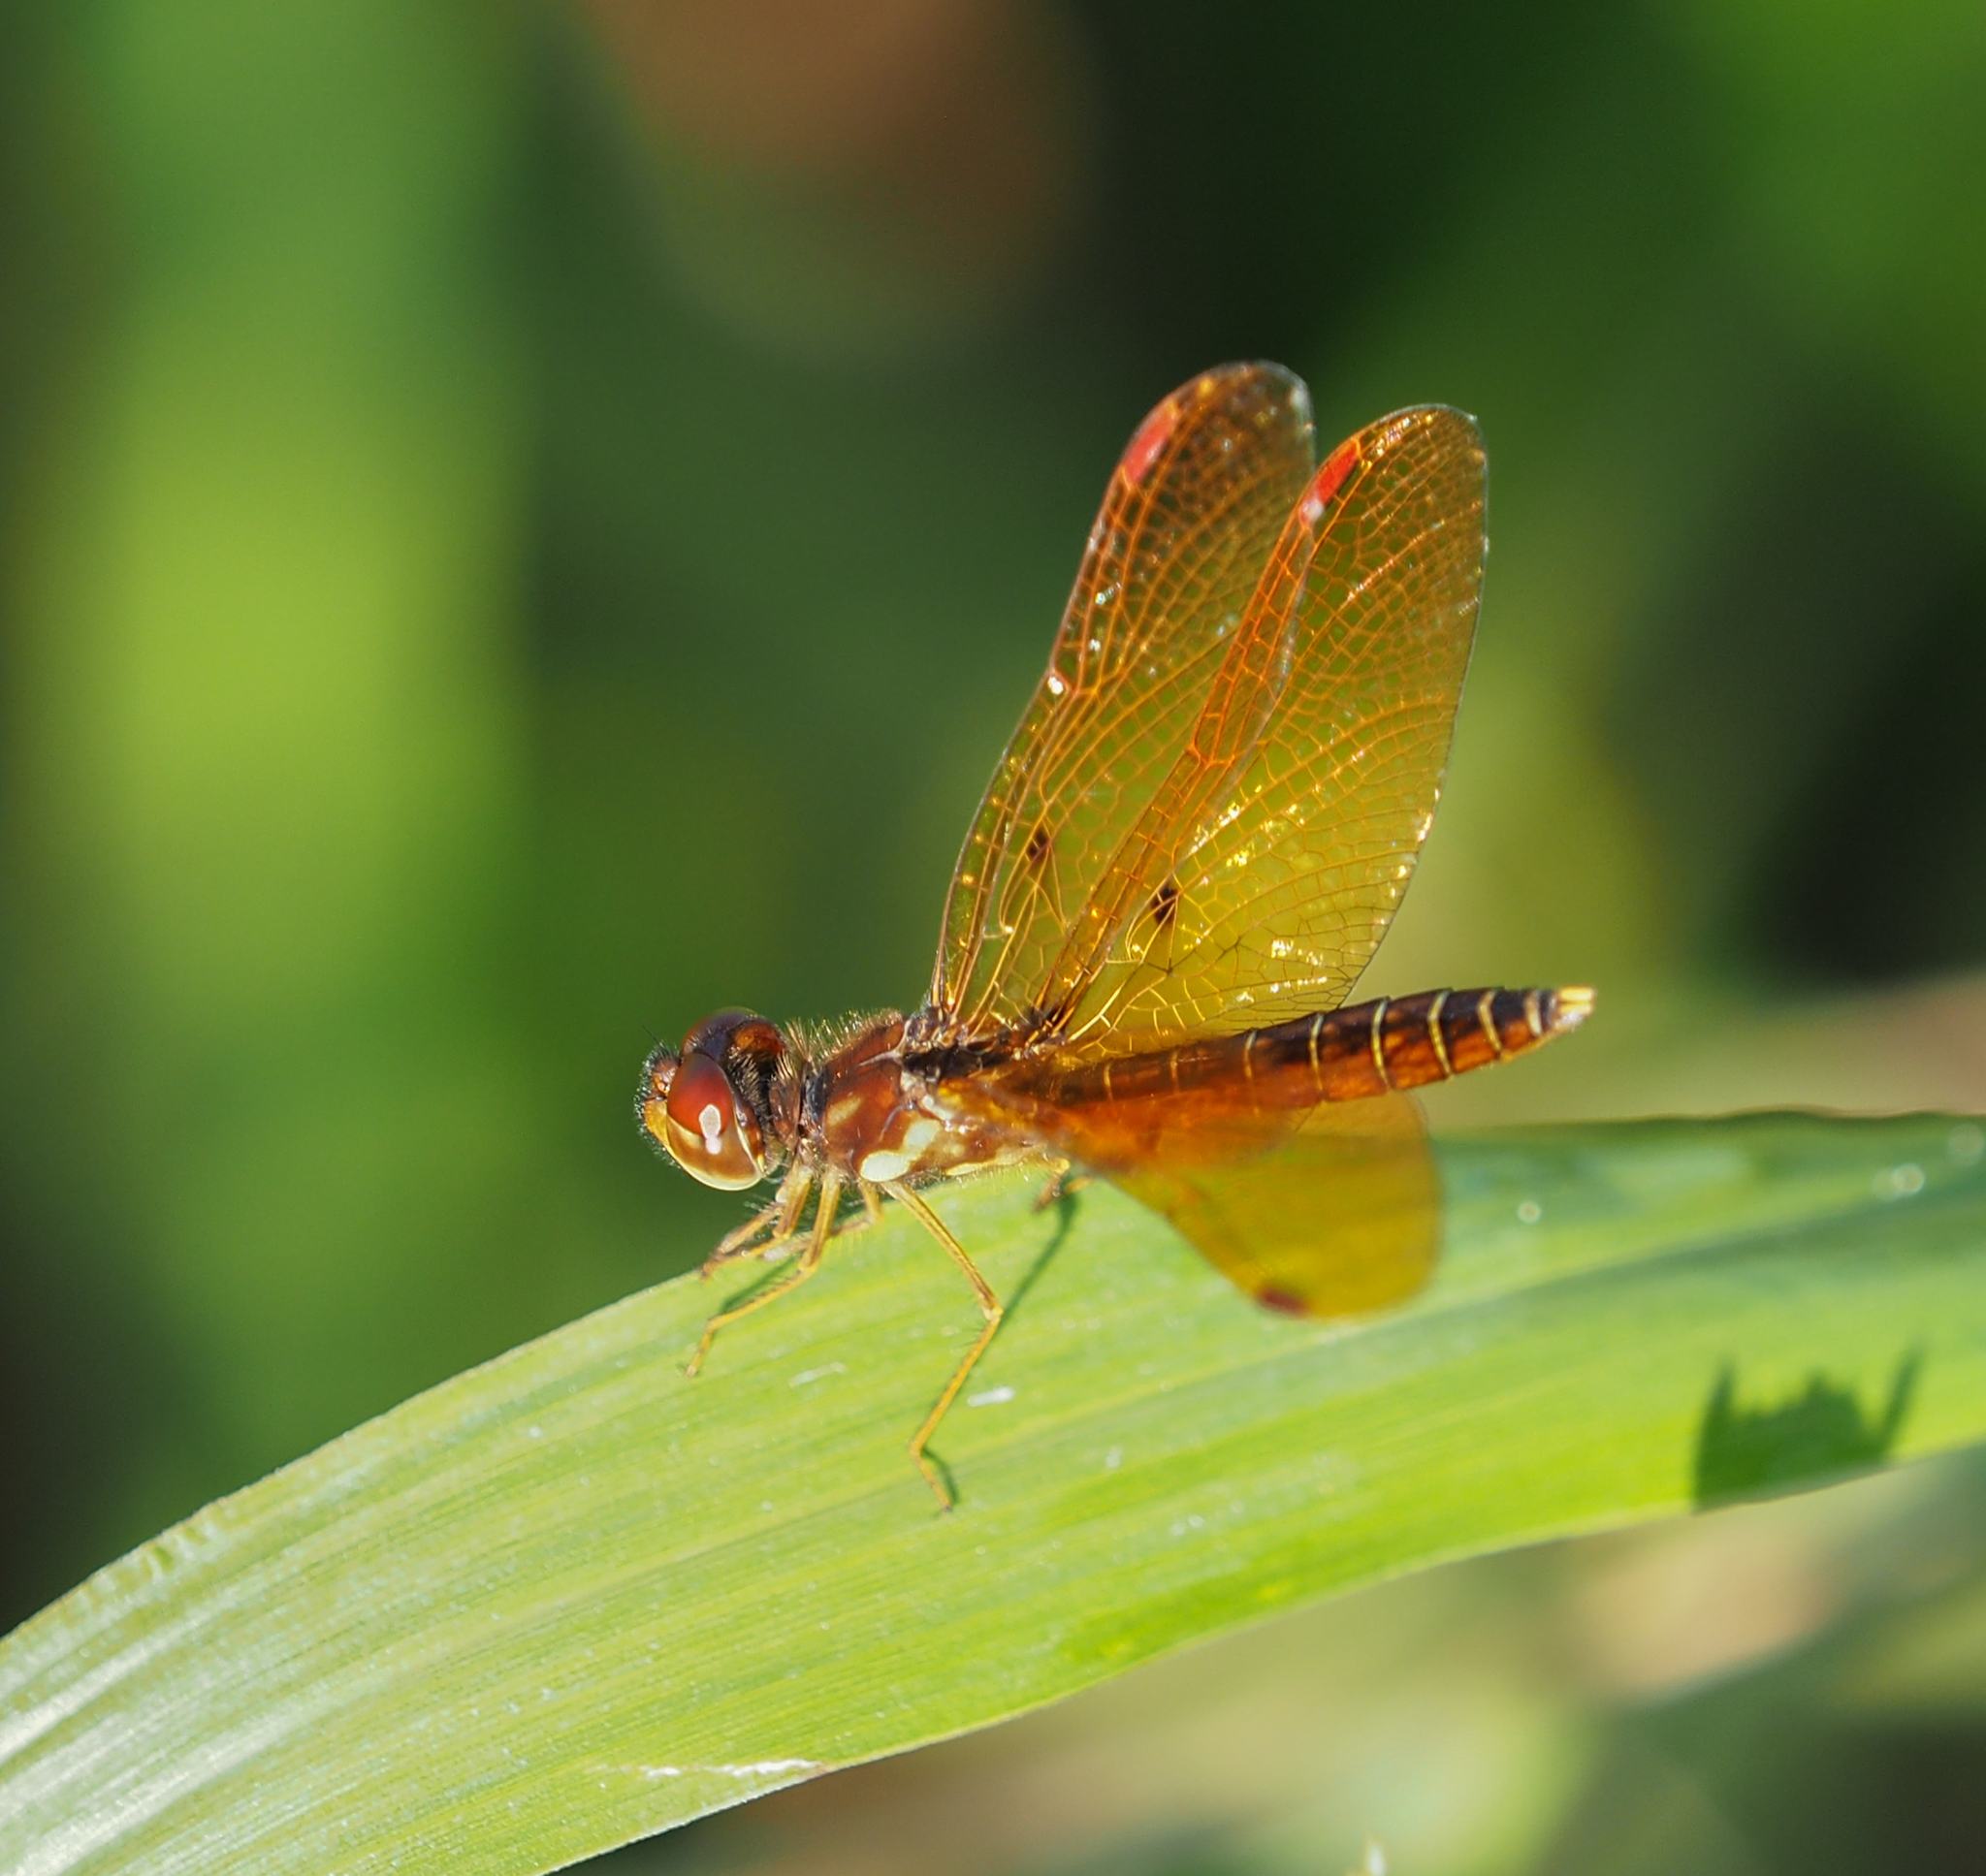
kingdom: Animalia
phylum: Arthropoda
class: Insecta
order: Odonata
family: Libellulidae
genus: Perithemis
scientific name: Perithemis tenera
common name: Eastern amberwing
